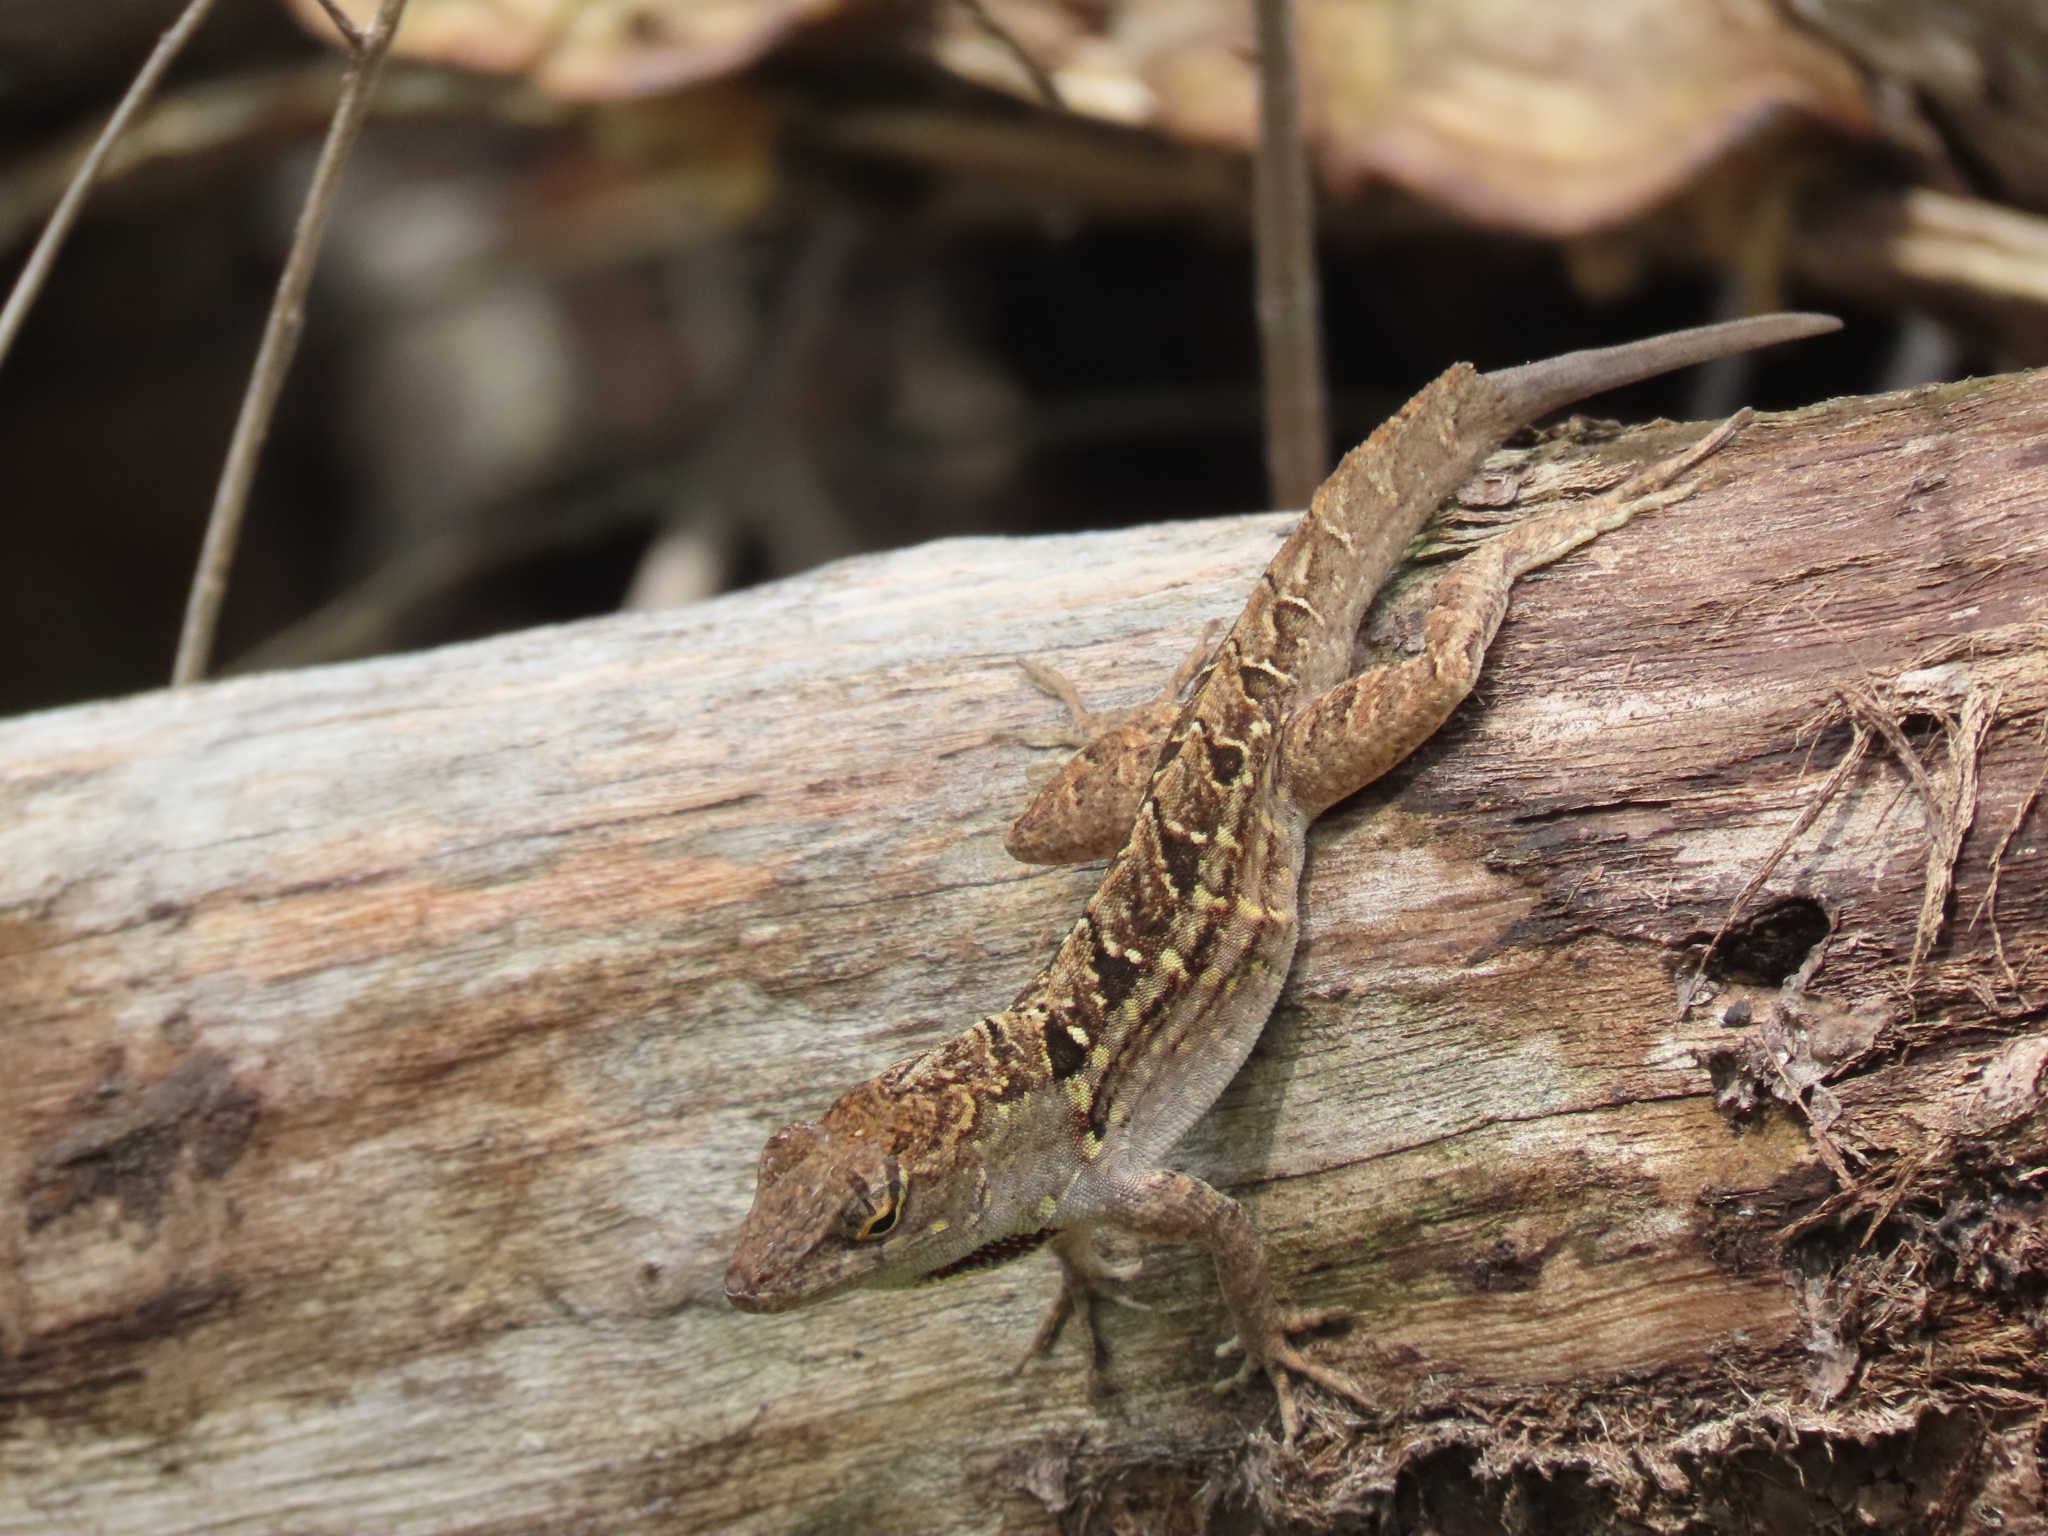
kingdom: Animalia
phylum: Chordata
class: Squamata
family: Dactyloidae
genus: Anolis
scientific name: Anolis sagrei
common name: Brown anole
